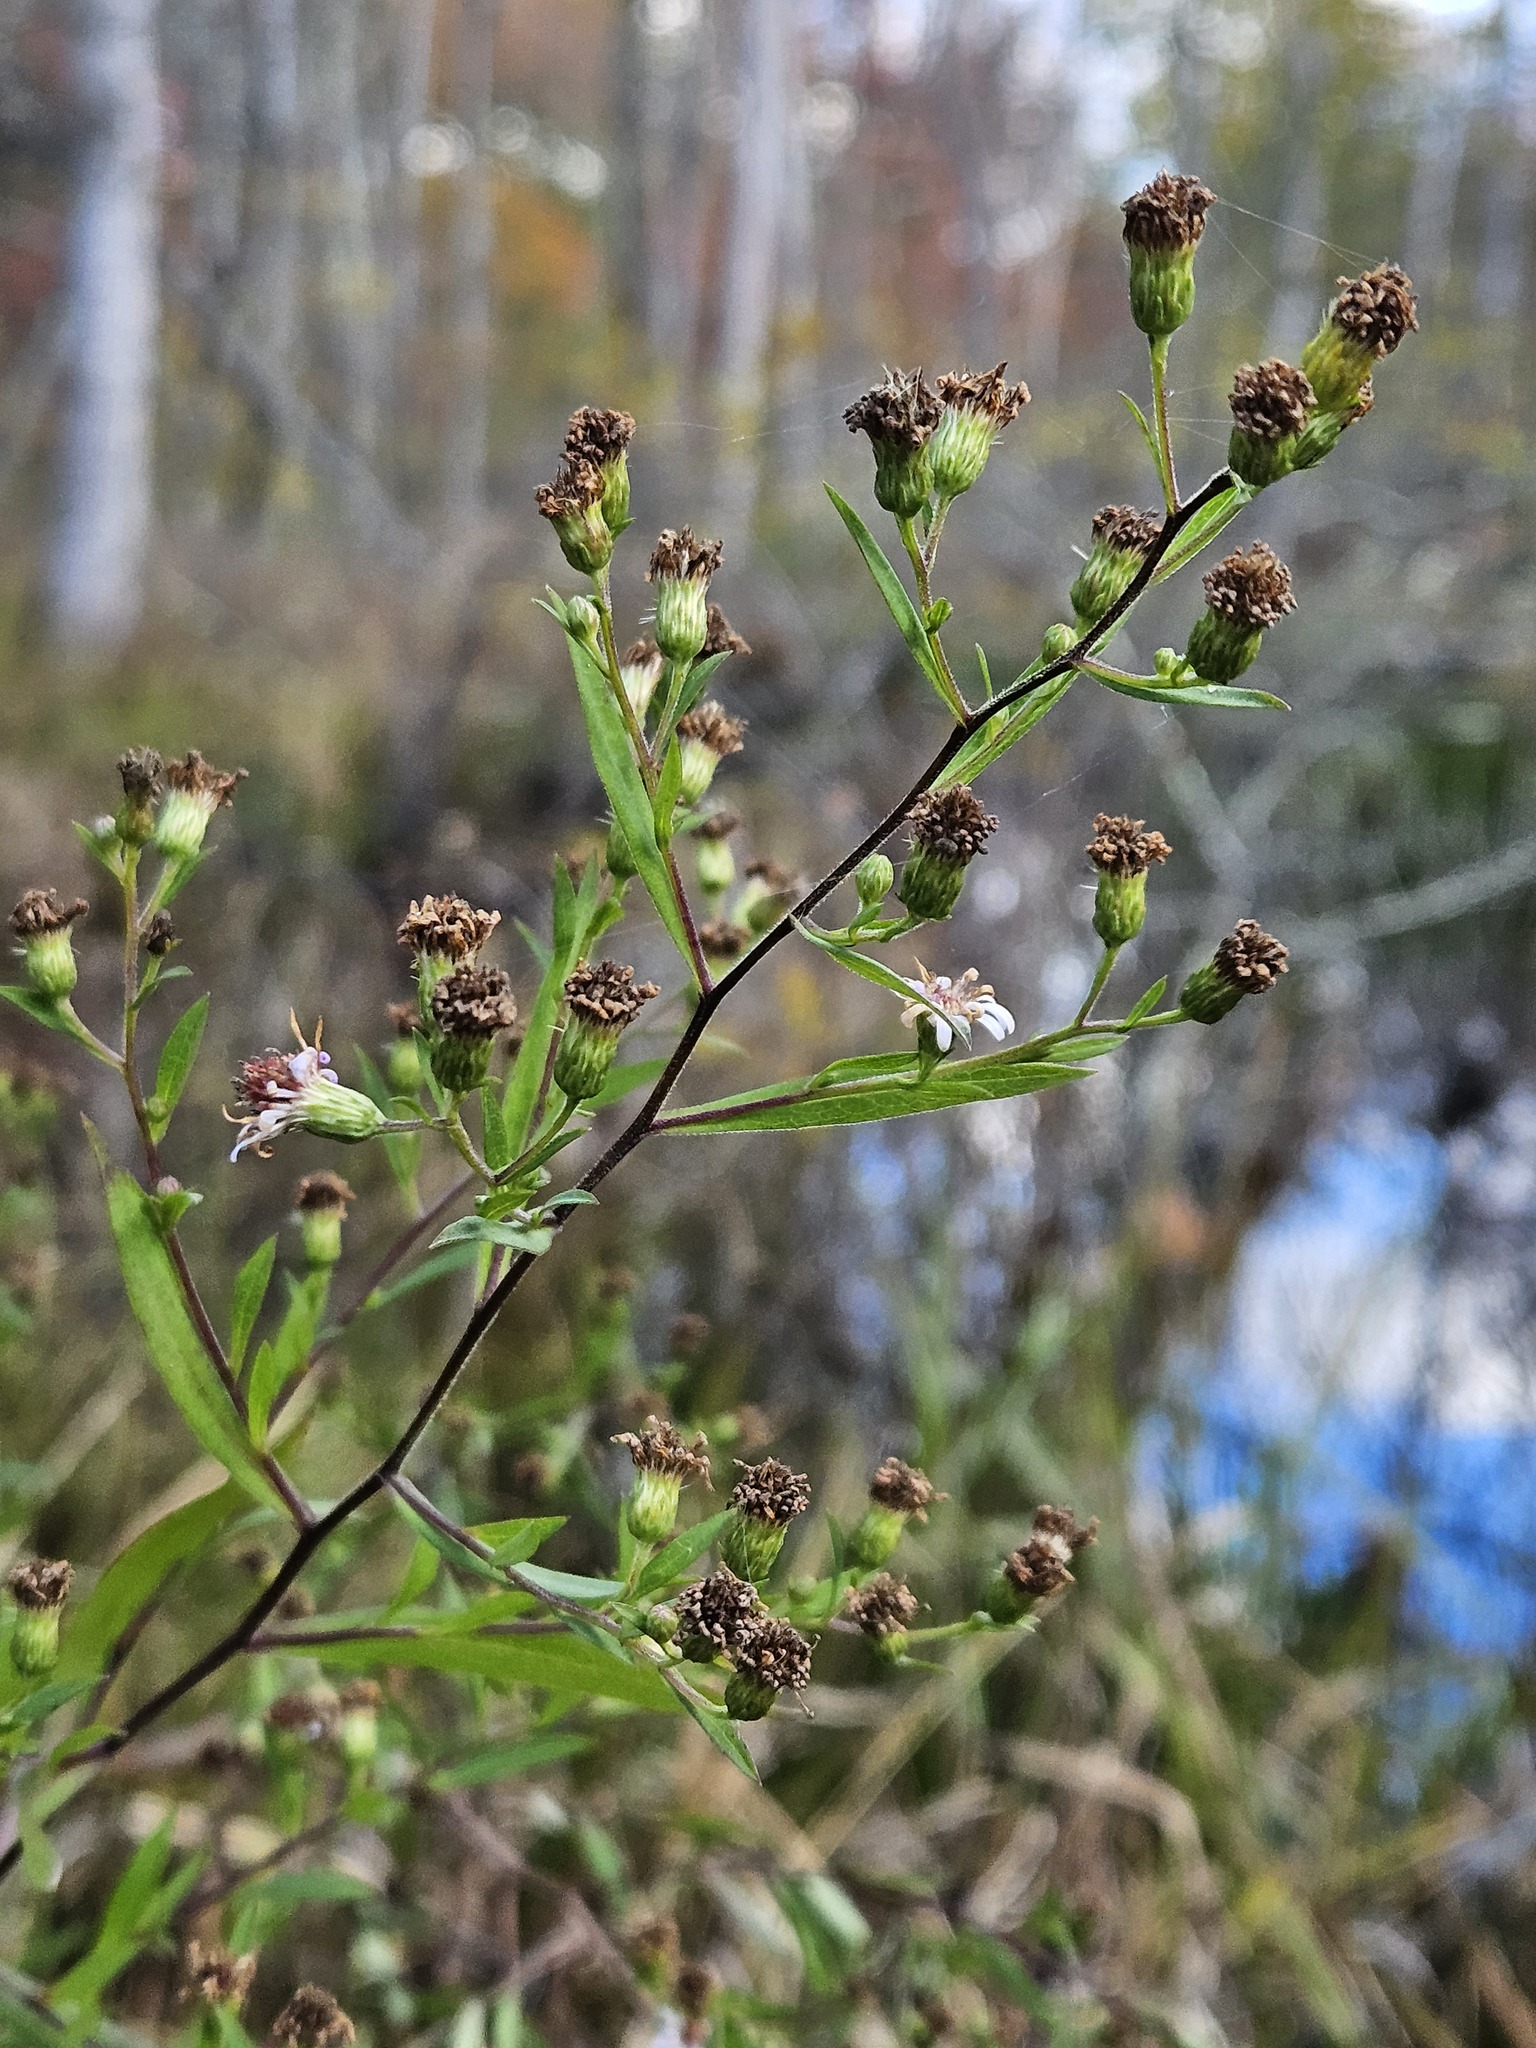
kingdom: Plantae
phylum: Tracheophyta
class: Magnoliopsida
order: Asterales
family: Asteraceae
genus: Symphyotrichum
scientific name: Symphyotrichum lanceolatum
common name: Panicled aster
